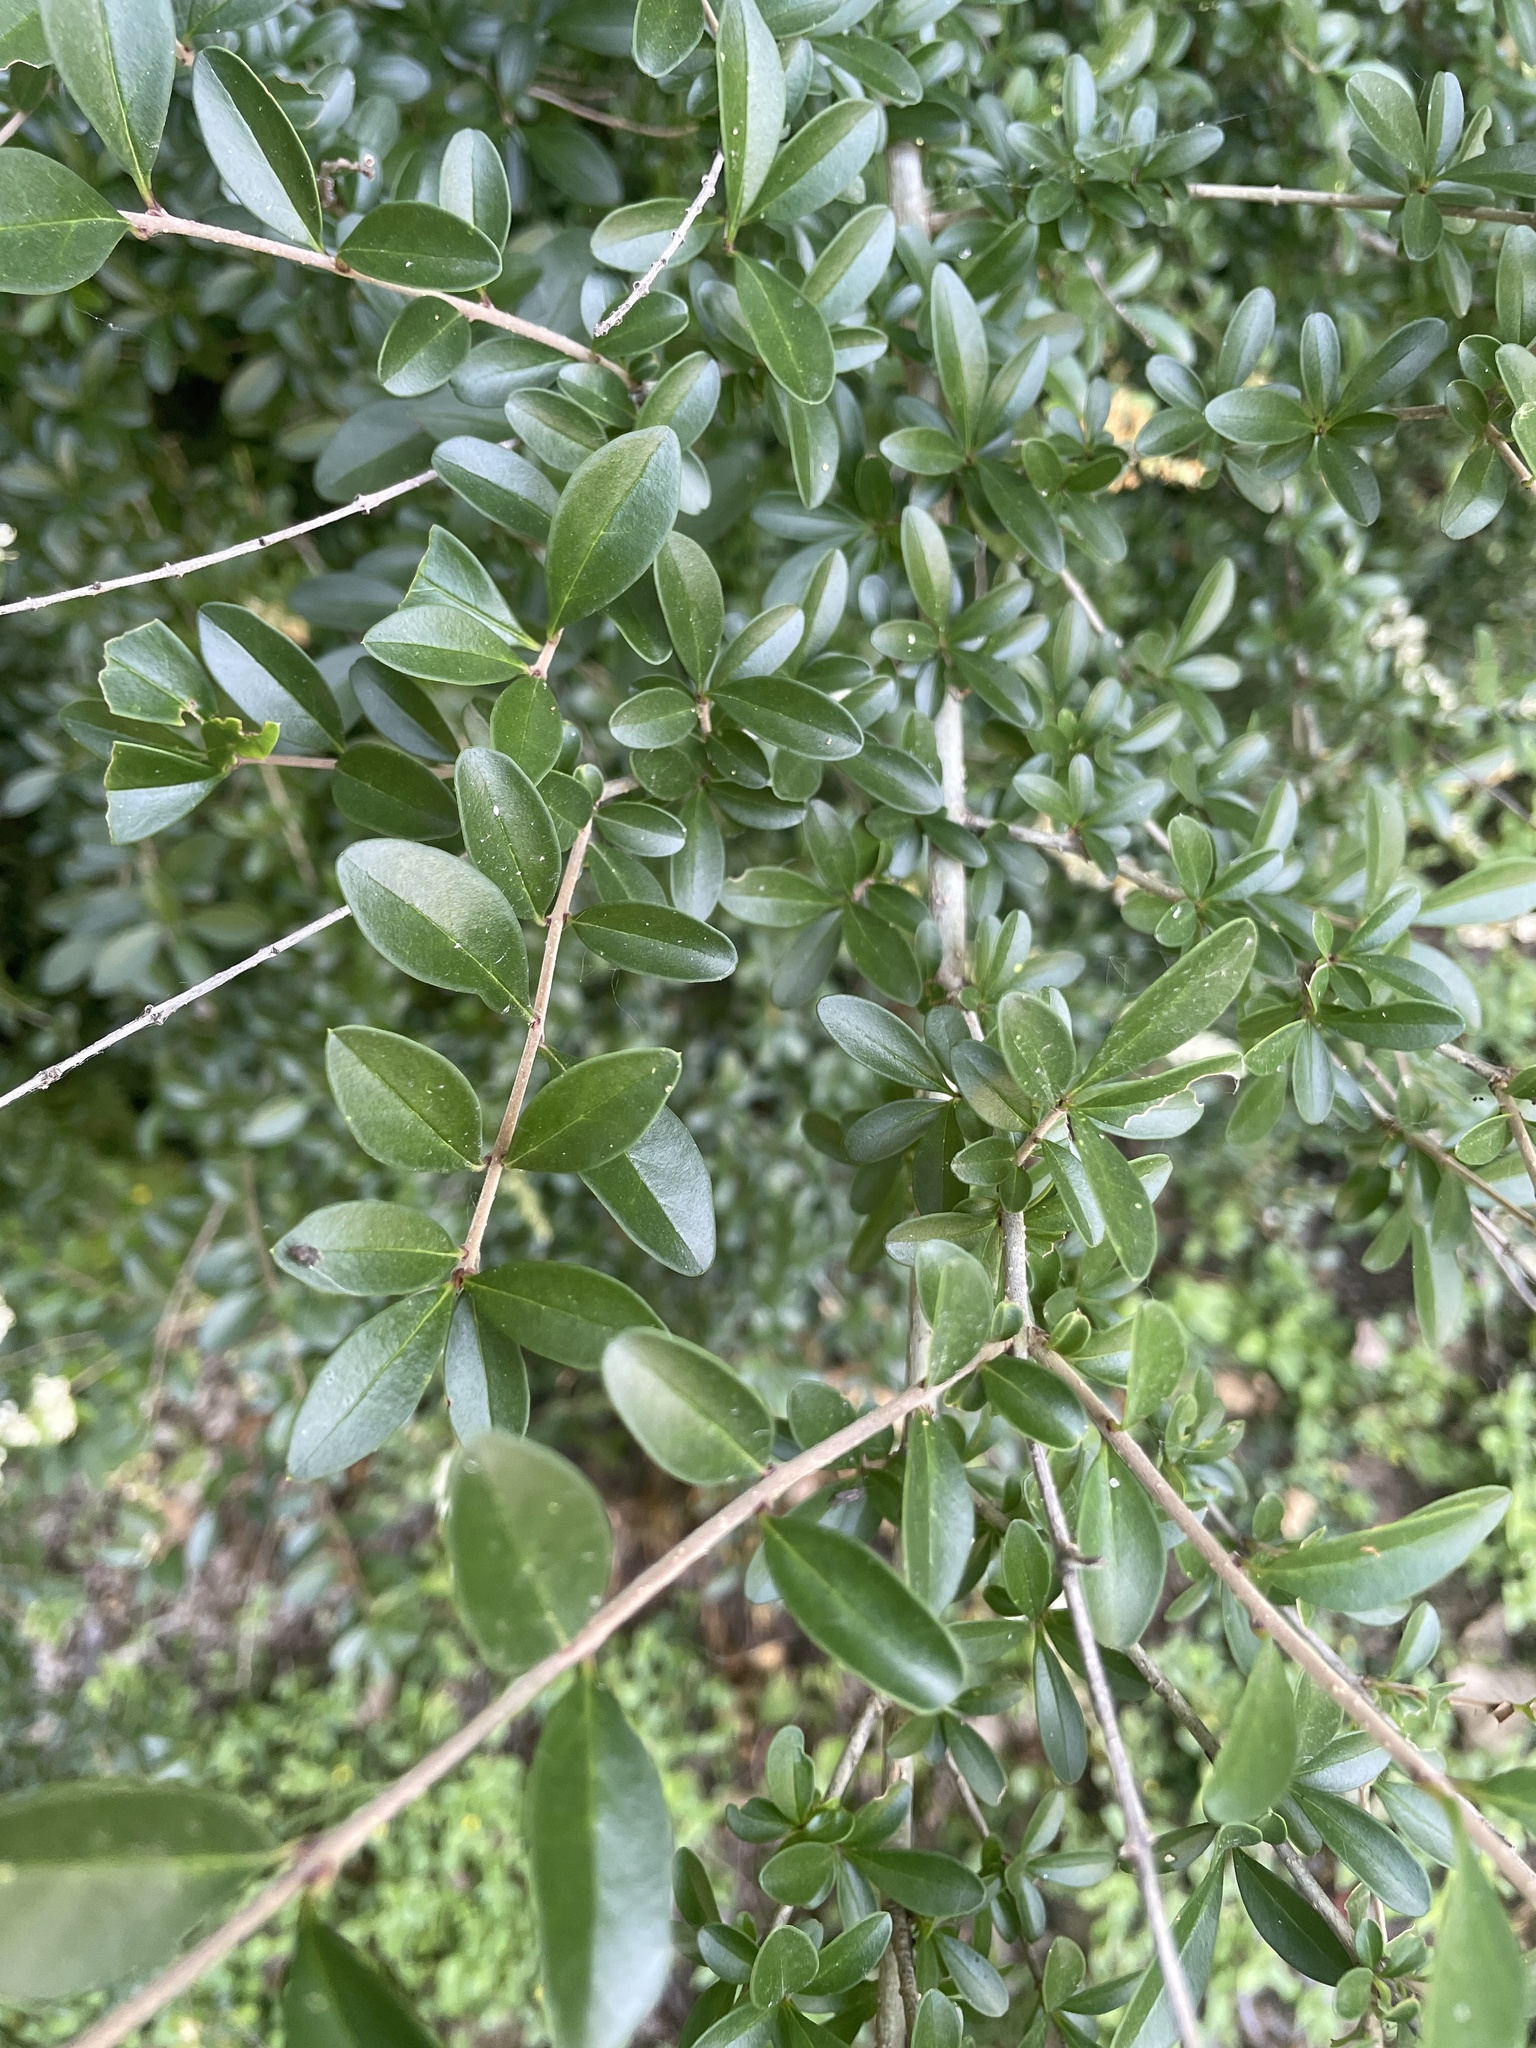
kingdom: Plantae
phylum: Tracheophyta
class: Magnoliopsida
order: Lamiales
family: Oleaceae
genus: Ligustrum
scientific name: Ligustrum quihoui
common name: Waxyleaf privet
